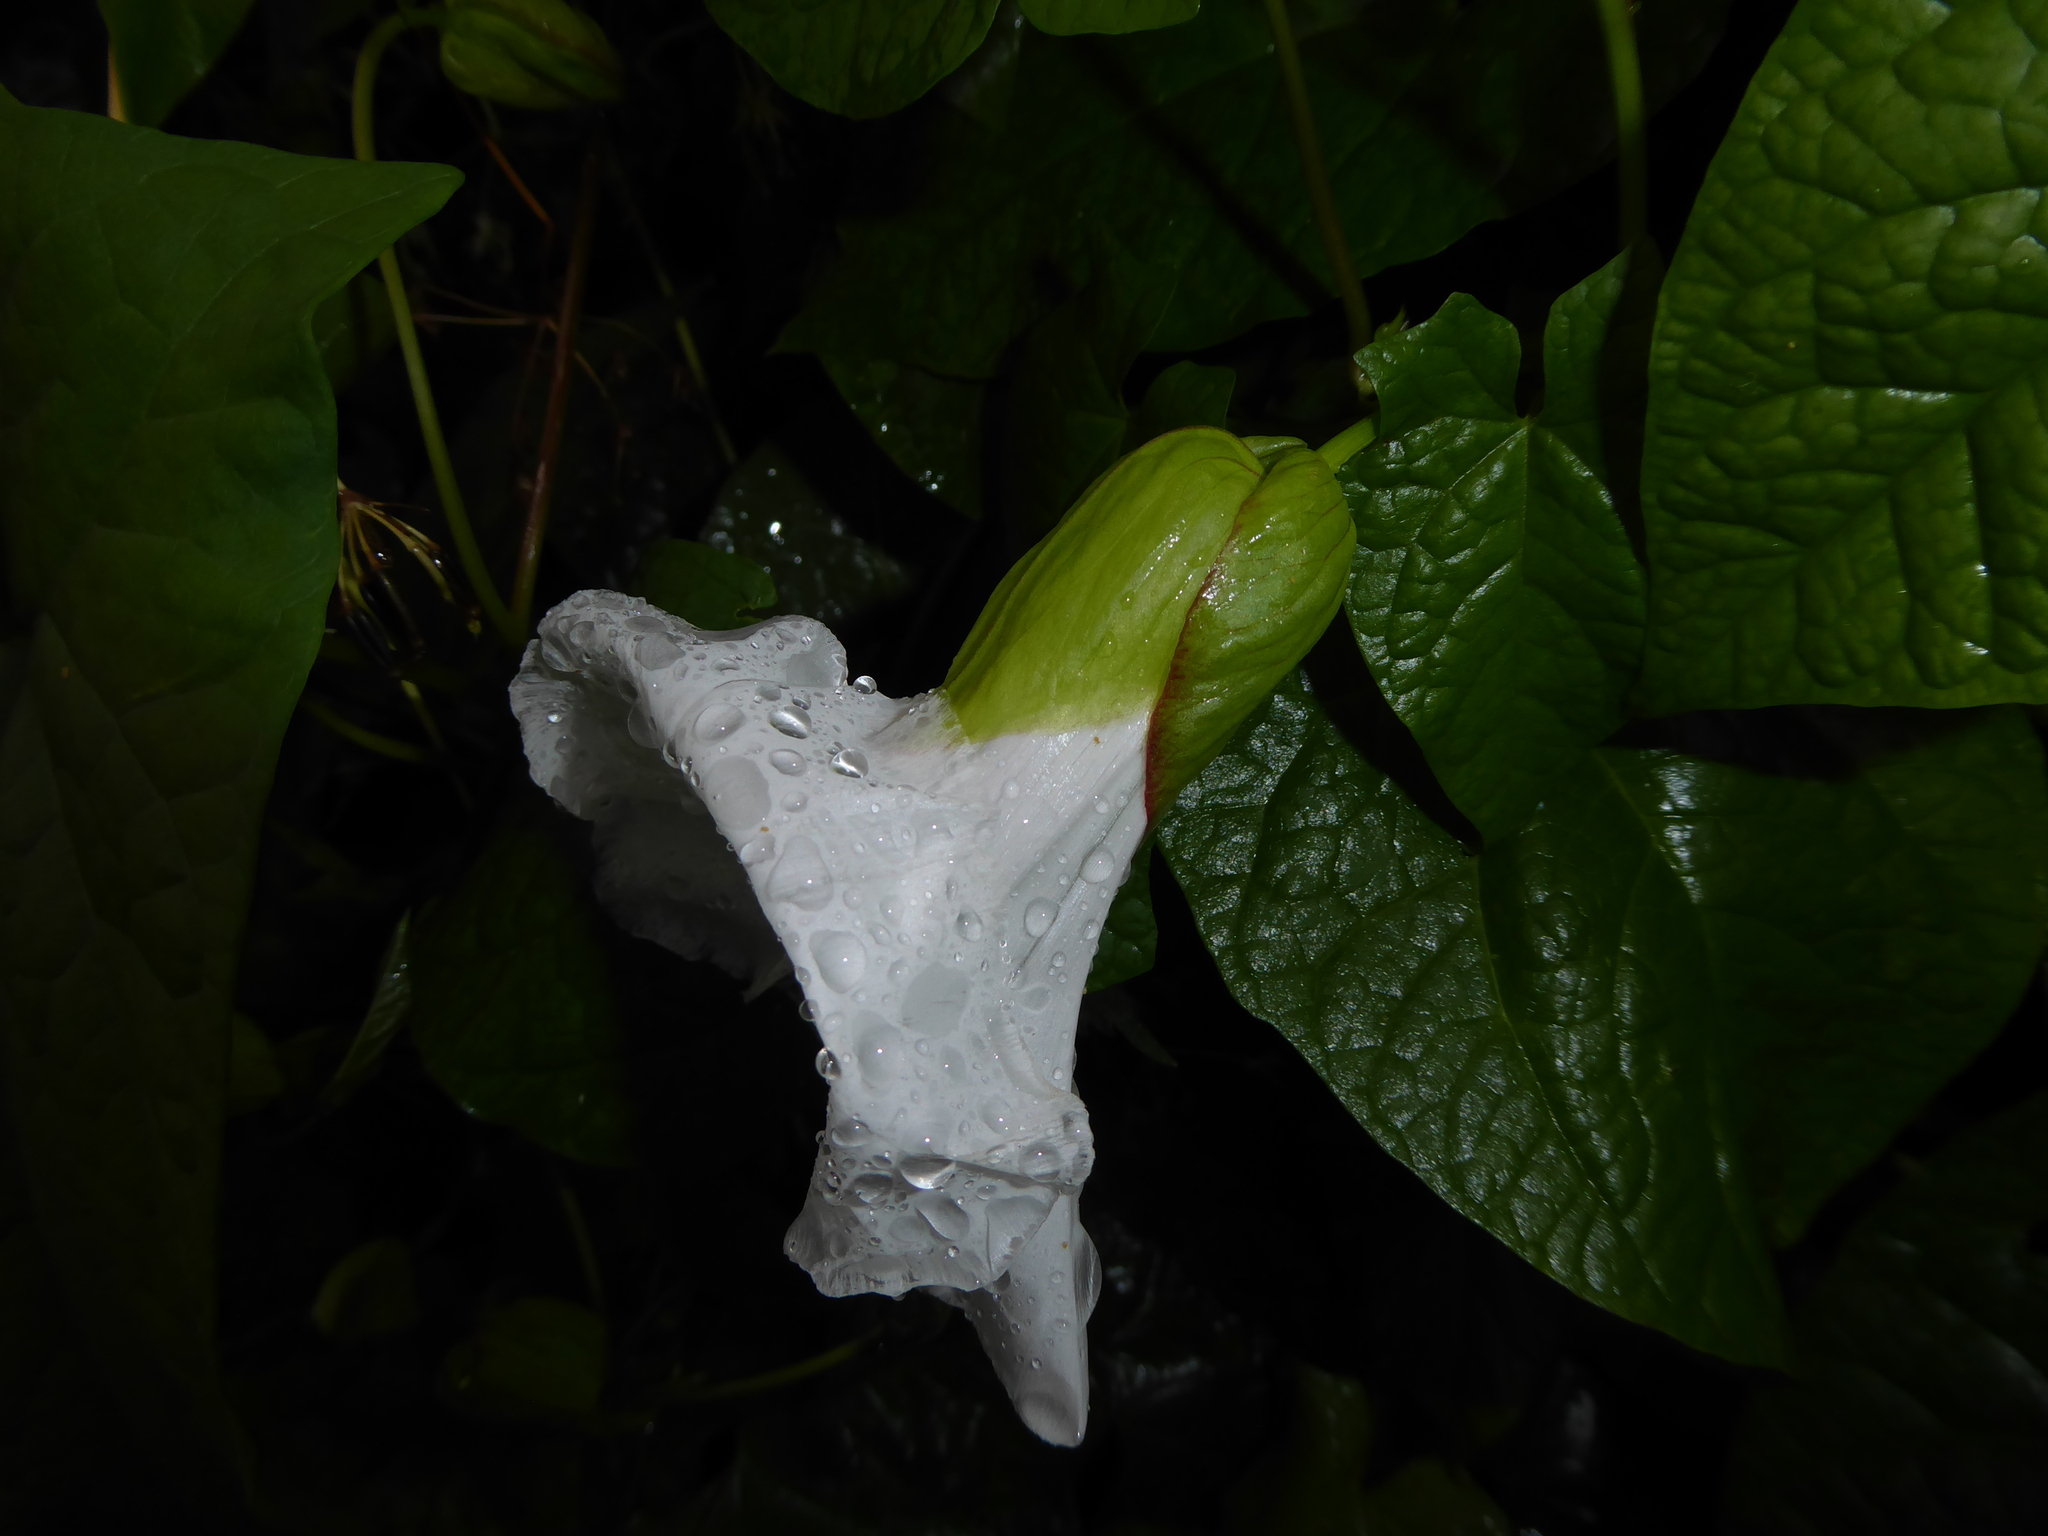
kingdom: Plantae
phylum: Tracheophyta
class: Magnoliopsida
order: Solanales
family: Convolvulaceae
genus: Calystegia
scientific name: Calystegia silvatica
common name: Large bindweed
